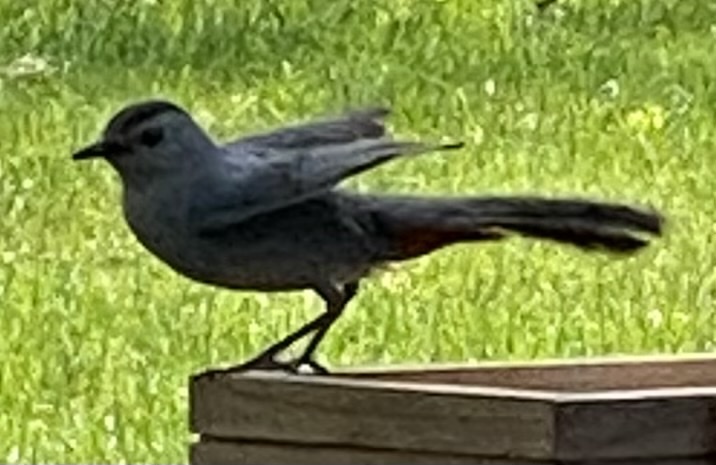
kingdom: Animalia
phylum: Chordata
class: Aves
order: Passeriformes
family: Mimidae
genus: Dumetella
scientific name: Dumetella carolinensis
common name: Gray catbird
